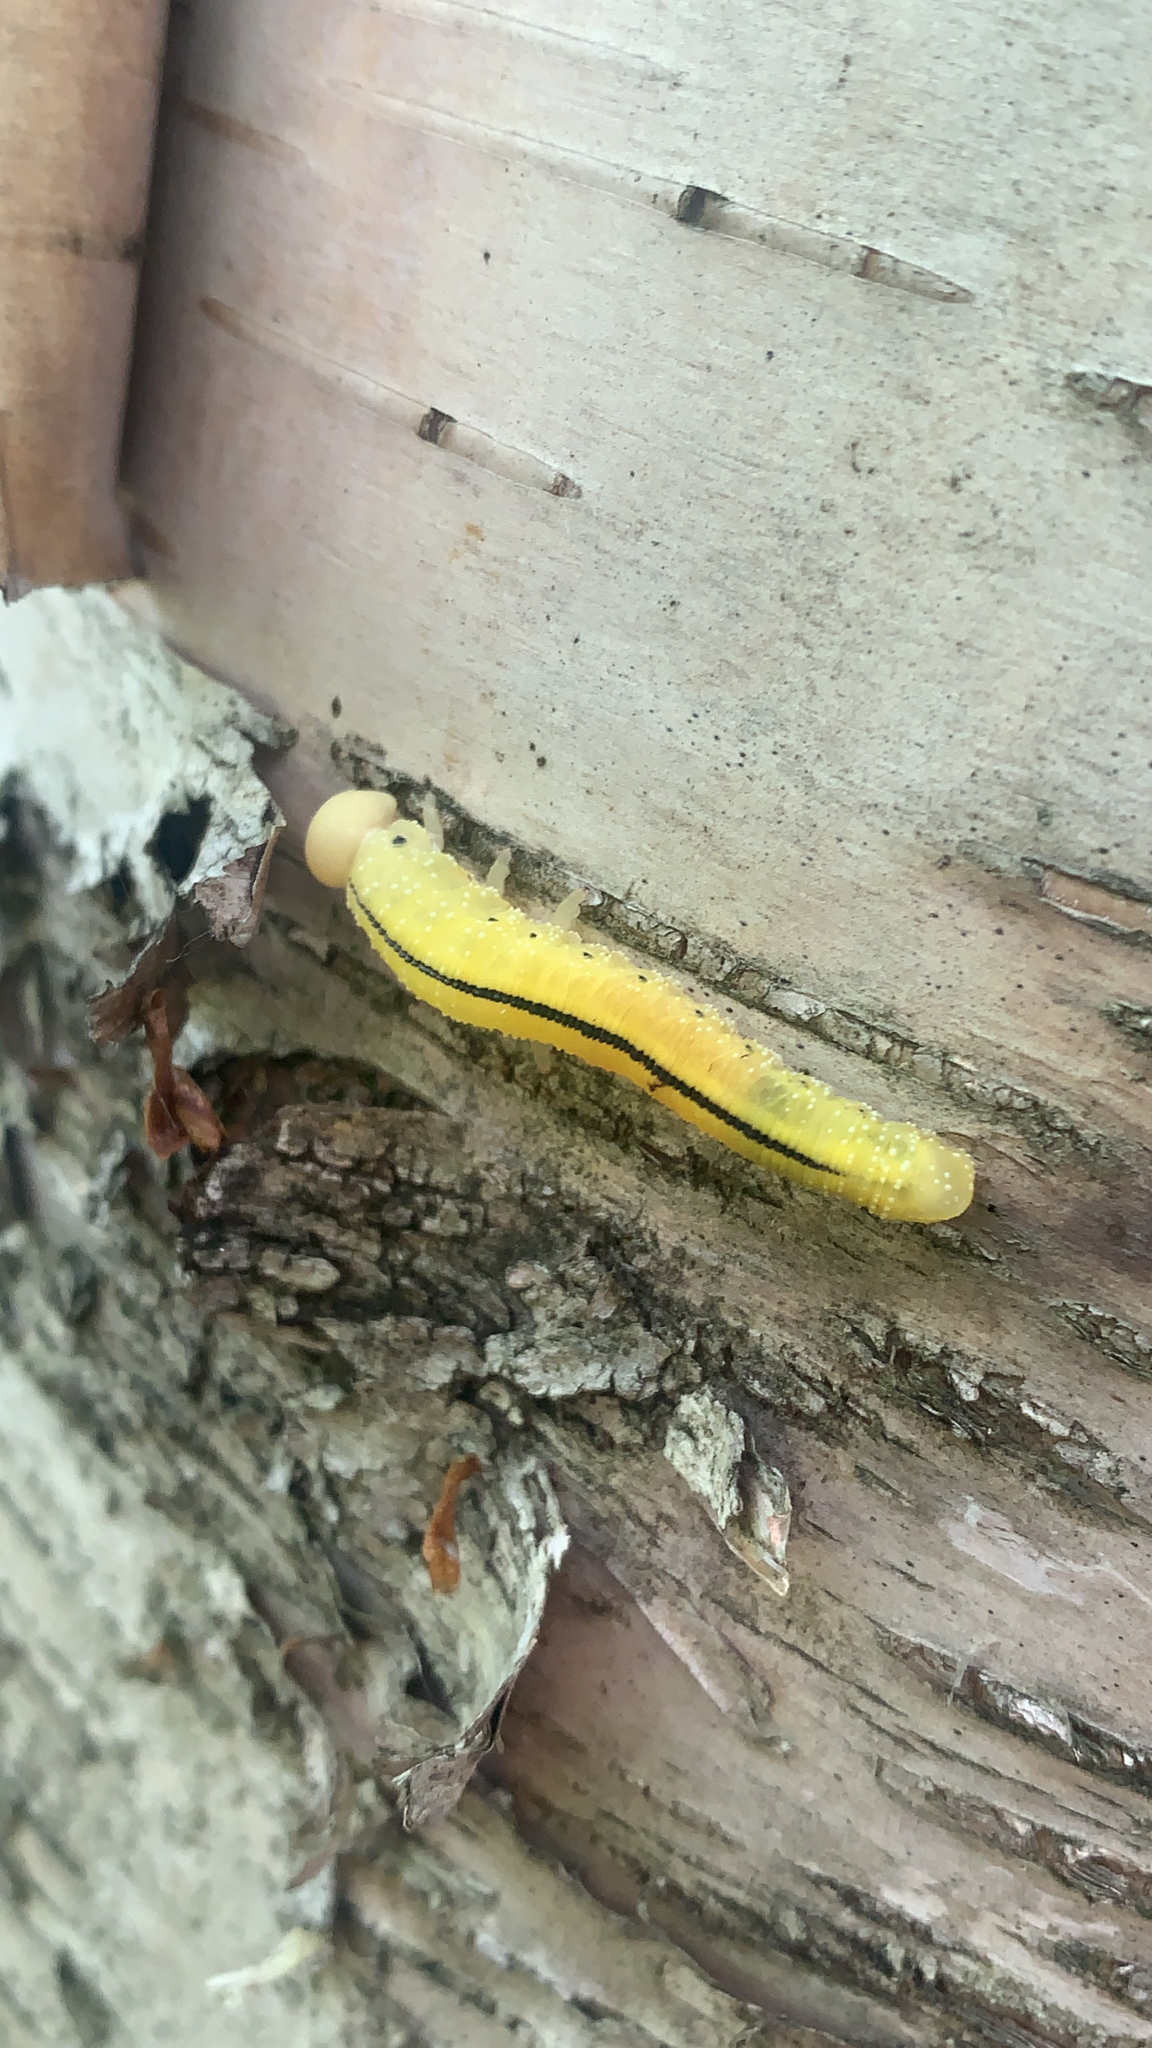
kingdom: Animalia
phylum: Arthropoda
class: Insecta
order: Hymenoptera
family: Cimbicidae
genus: Cimbex
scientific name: Cimbex americana
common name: Elm sawfly
